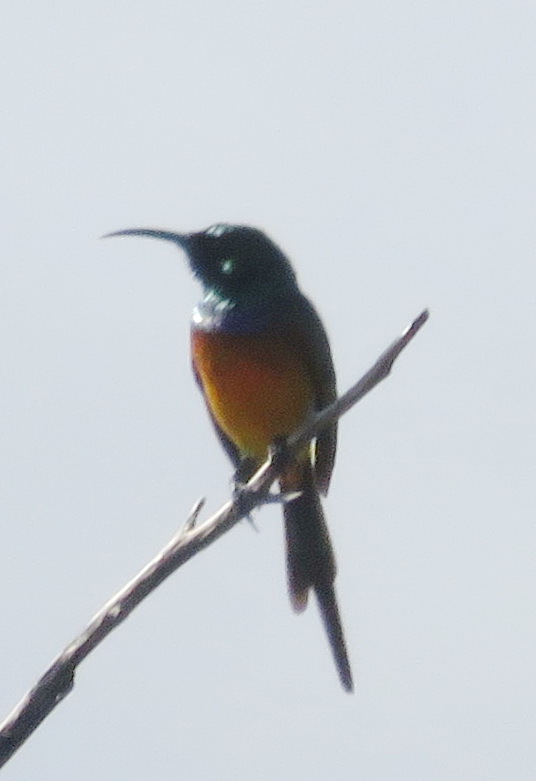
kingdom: Animalia
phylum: Chordata
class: Aves
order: Passeriformes
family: Nectariniidae
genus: Anthobaphes
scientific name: Anthobaphes violacea
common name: Orange-breasted sunbird
